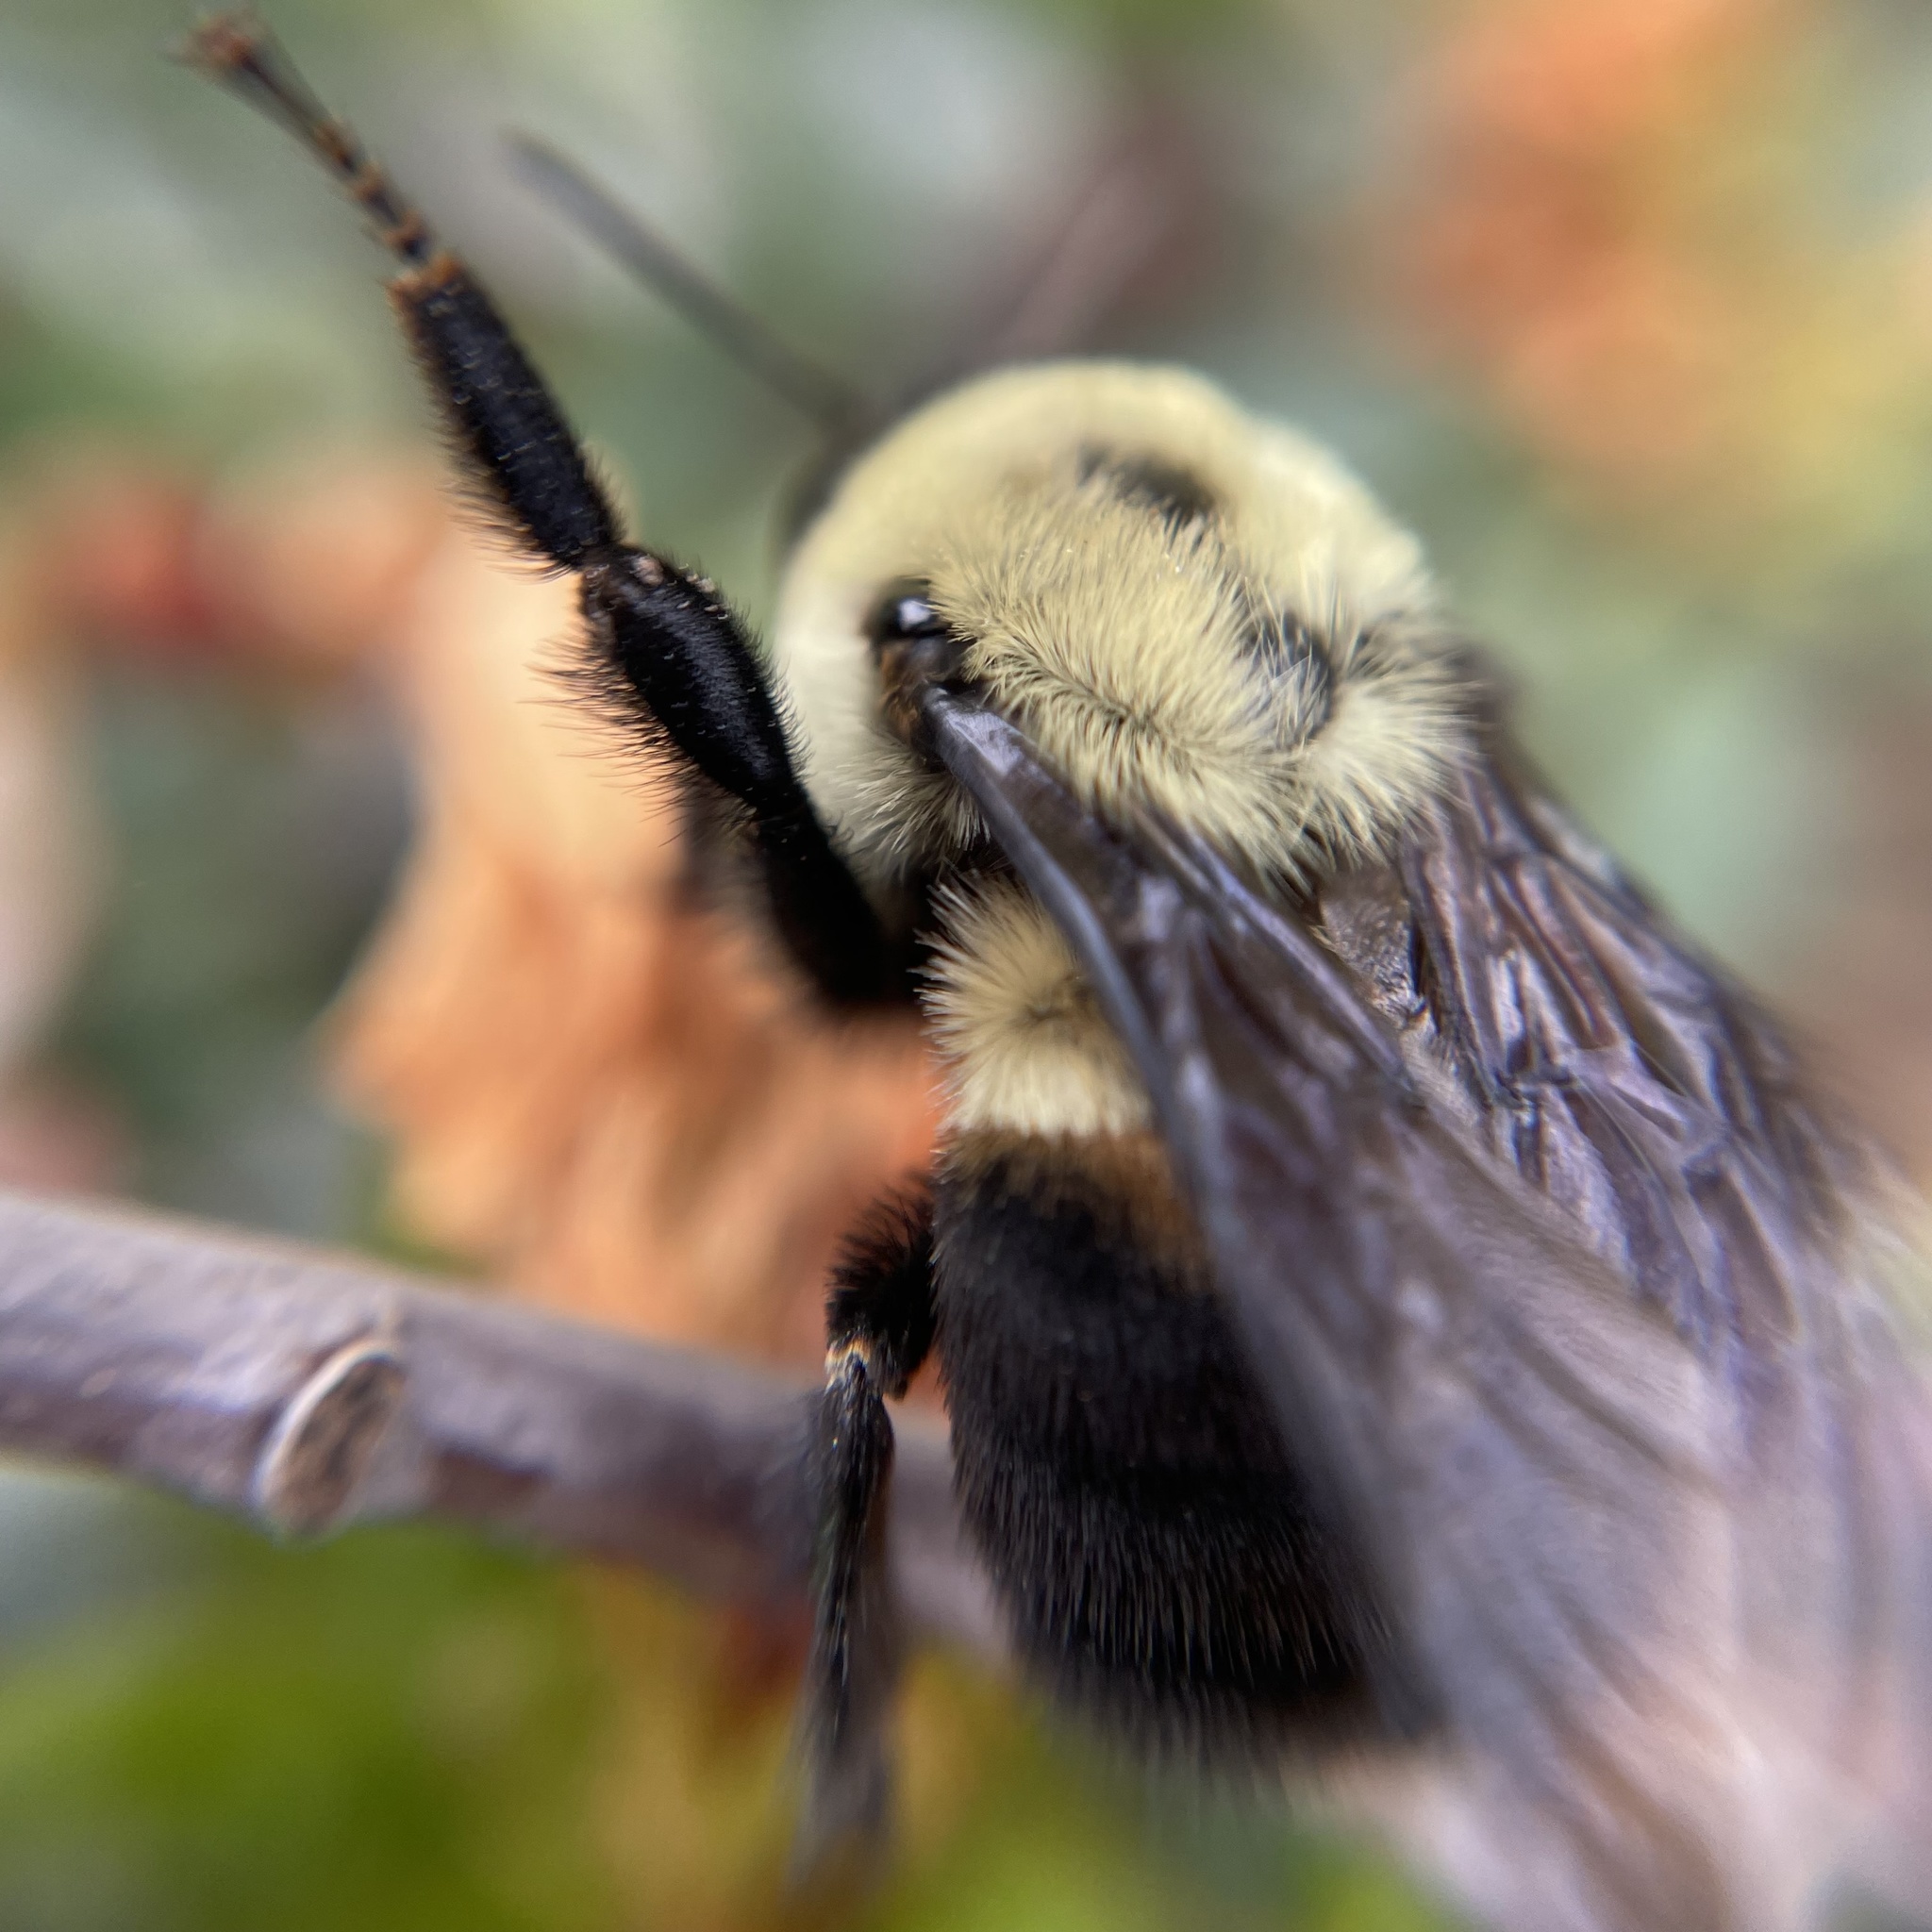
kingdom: Animalia
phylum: Arthropoda
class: Insecta
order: Hymenoptera
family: Apidae
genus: Bombus
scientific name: Bombus griseocollis
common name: Brown-belted bumble bee
